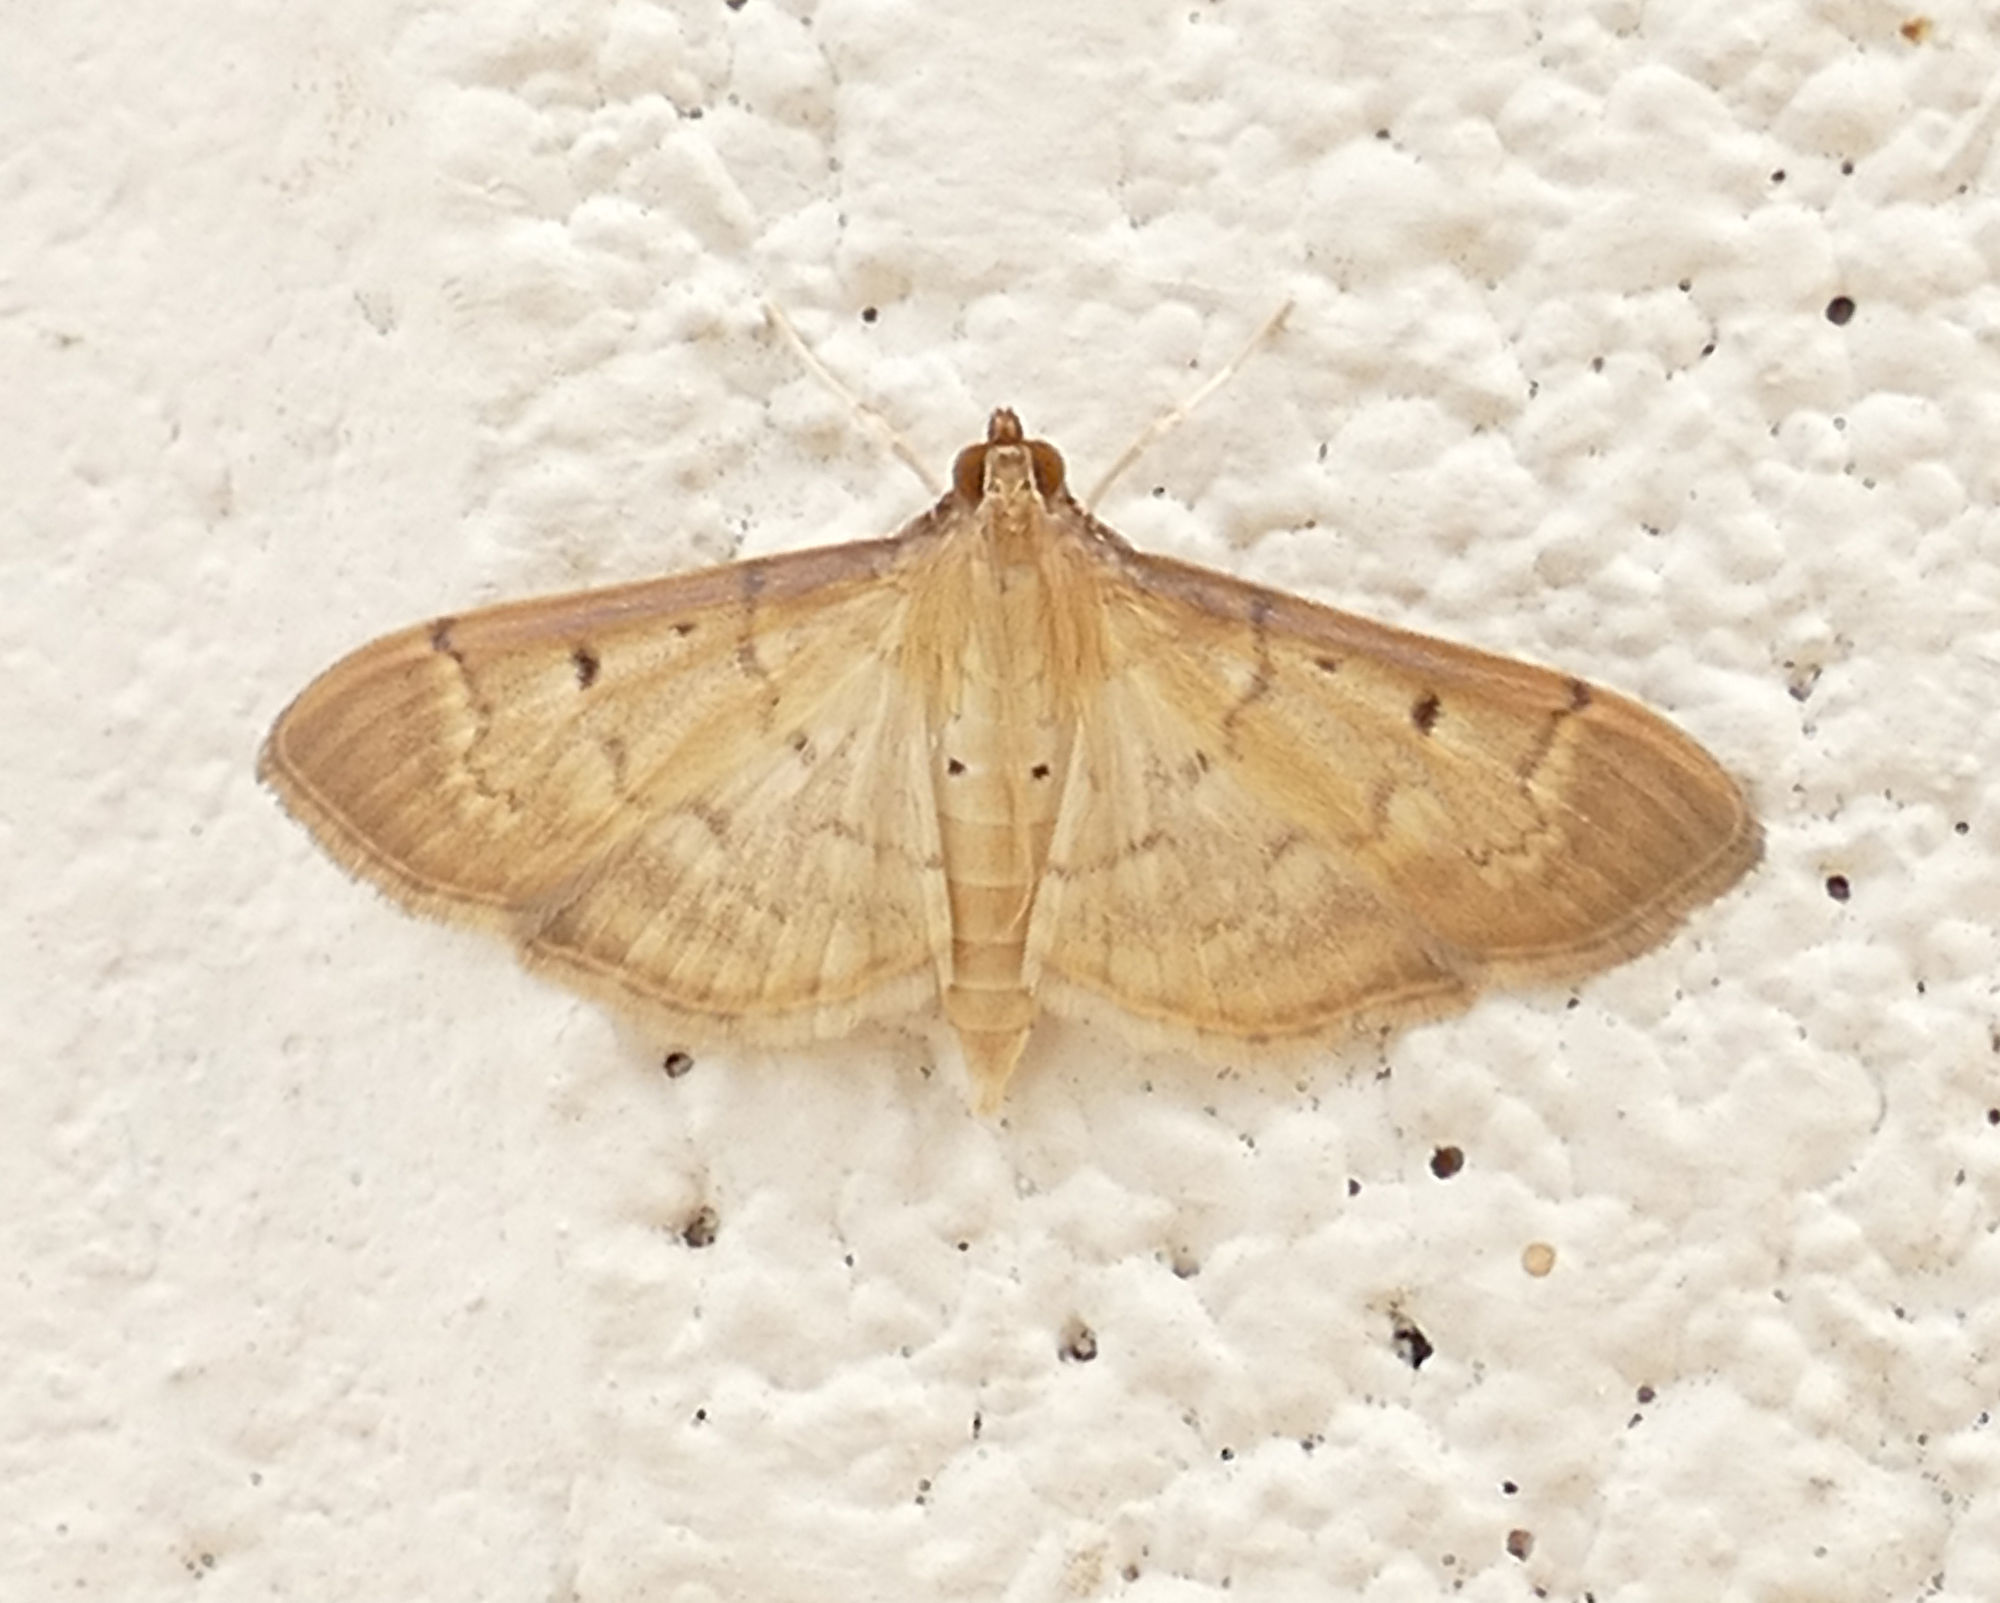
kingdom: Animalia
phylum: Arthropoda
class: Insecta
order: Lepidoptera
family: Crambidae
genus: Herpetogramma
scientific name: Herpetogramma bipunctalis
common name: Southern beet webworm
